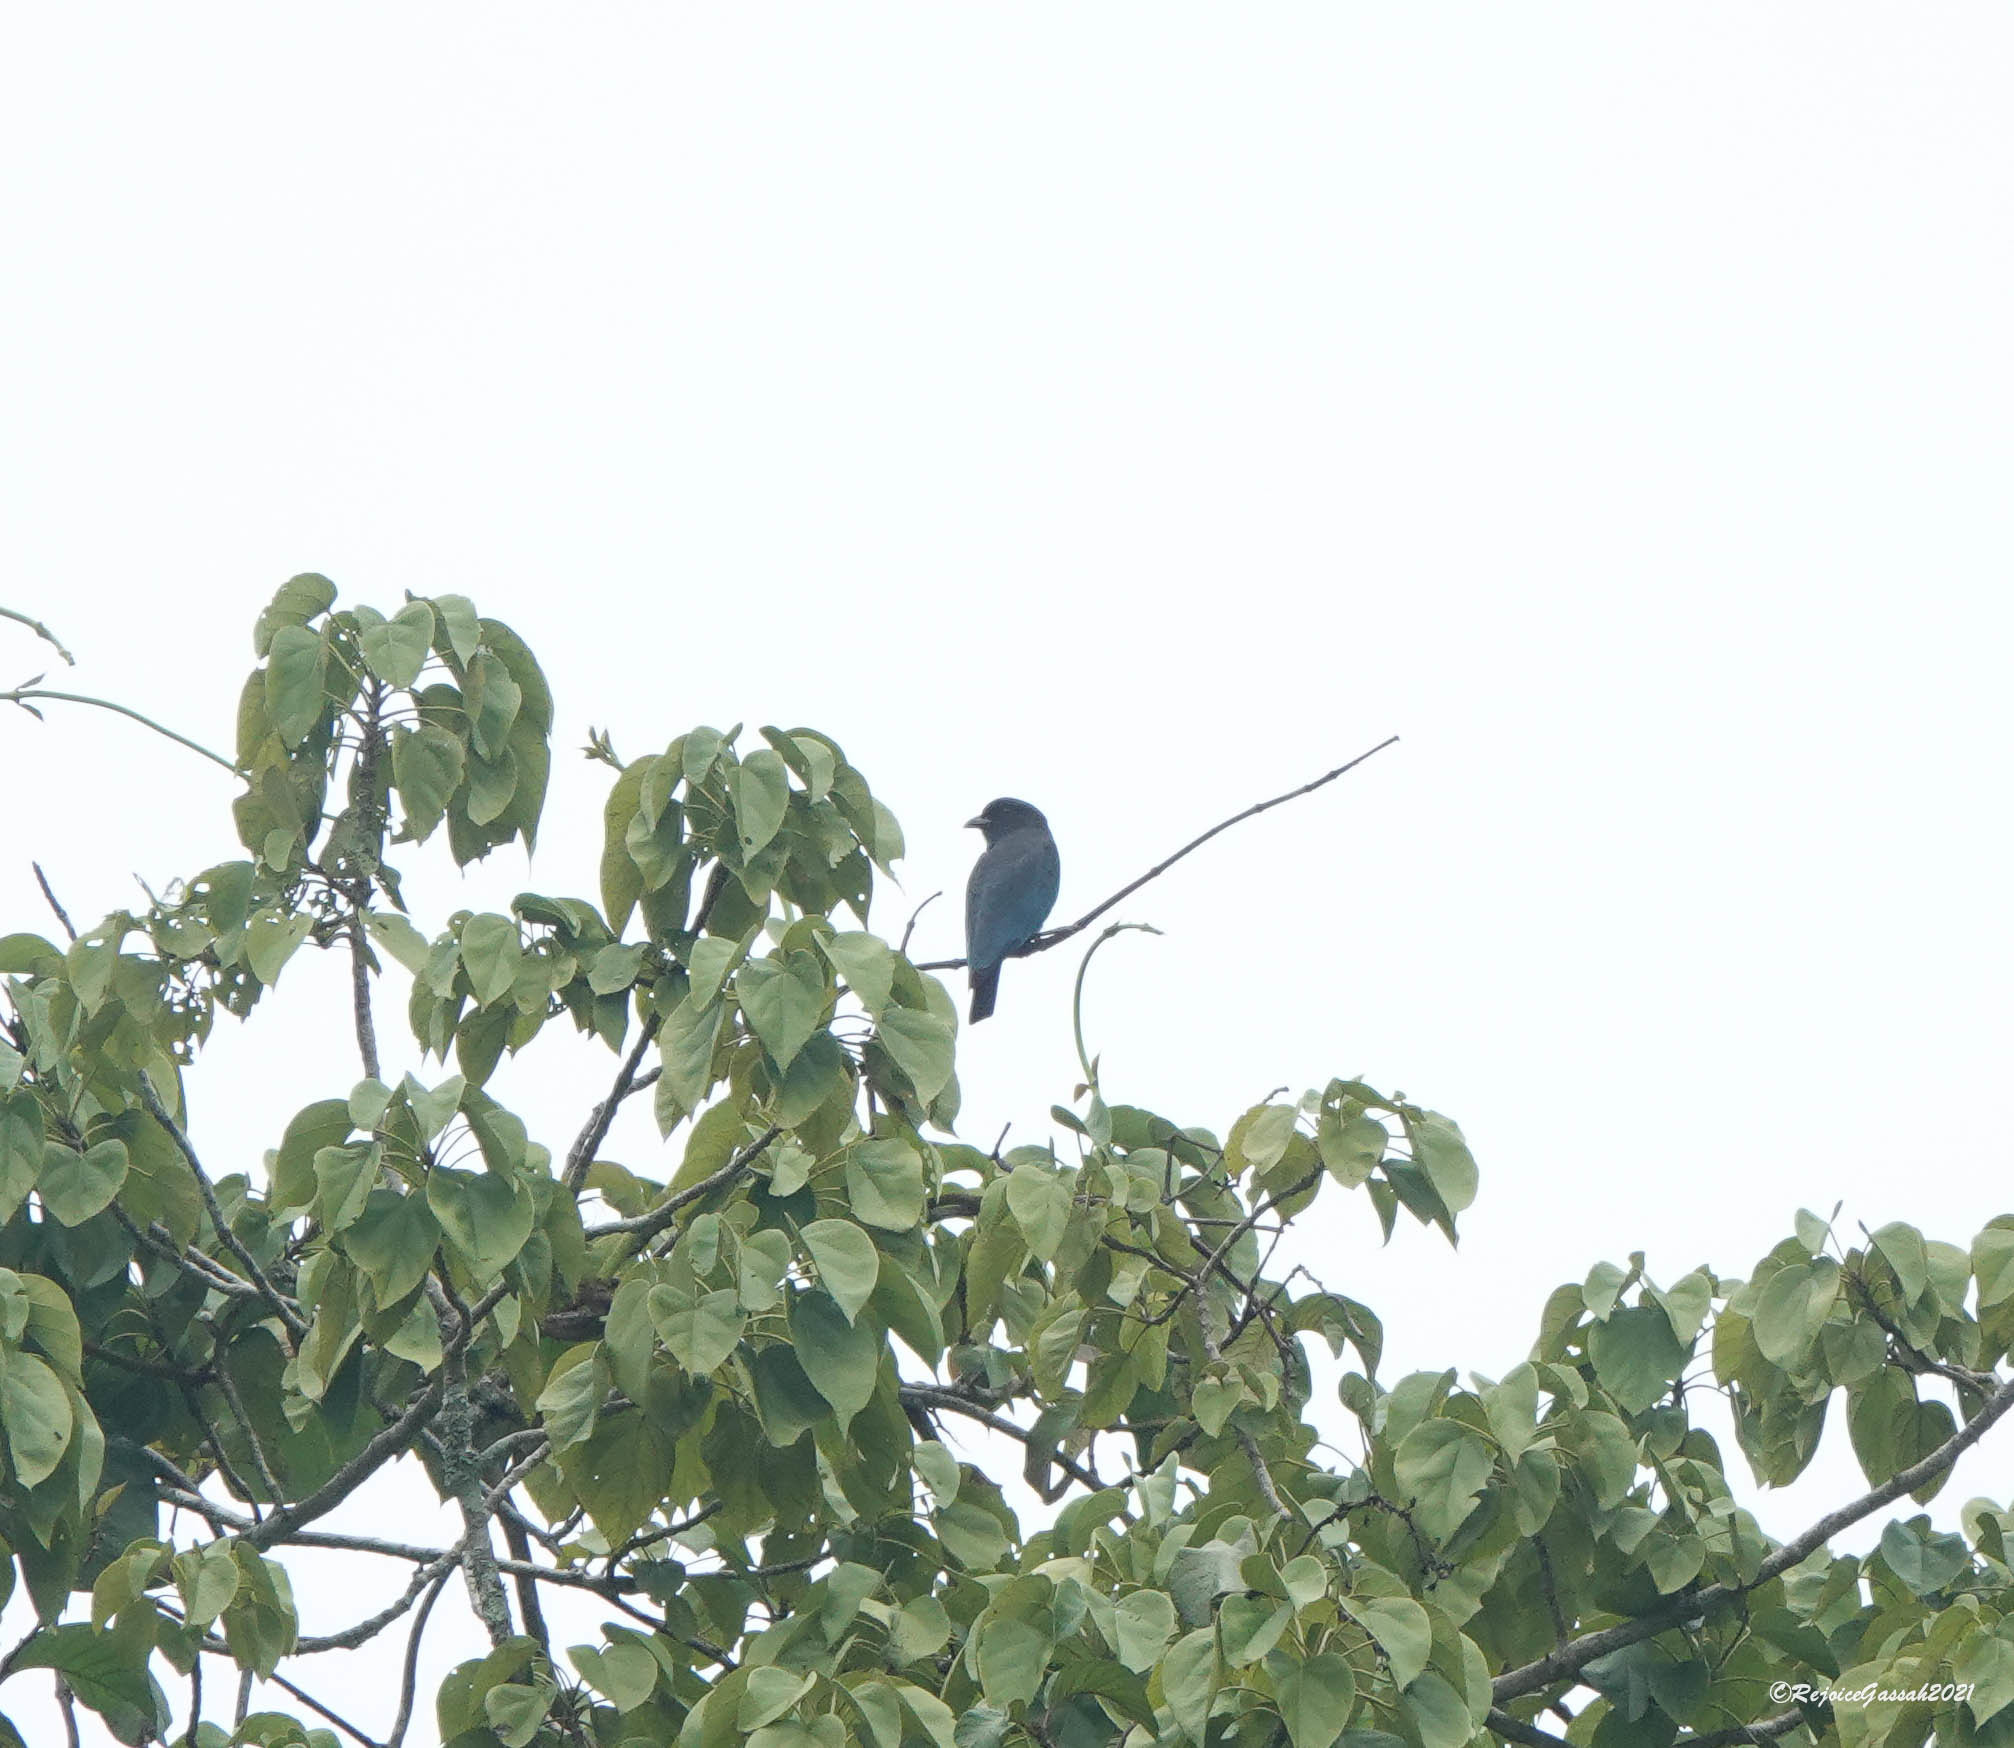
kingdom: Animalia
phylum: Chordata
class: Aves
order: Coraciiformes
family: Coraciidae
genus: Eurystomus
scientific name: Eurystomus orientalis
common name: Oriental dollarbird
